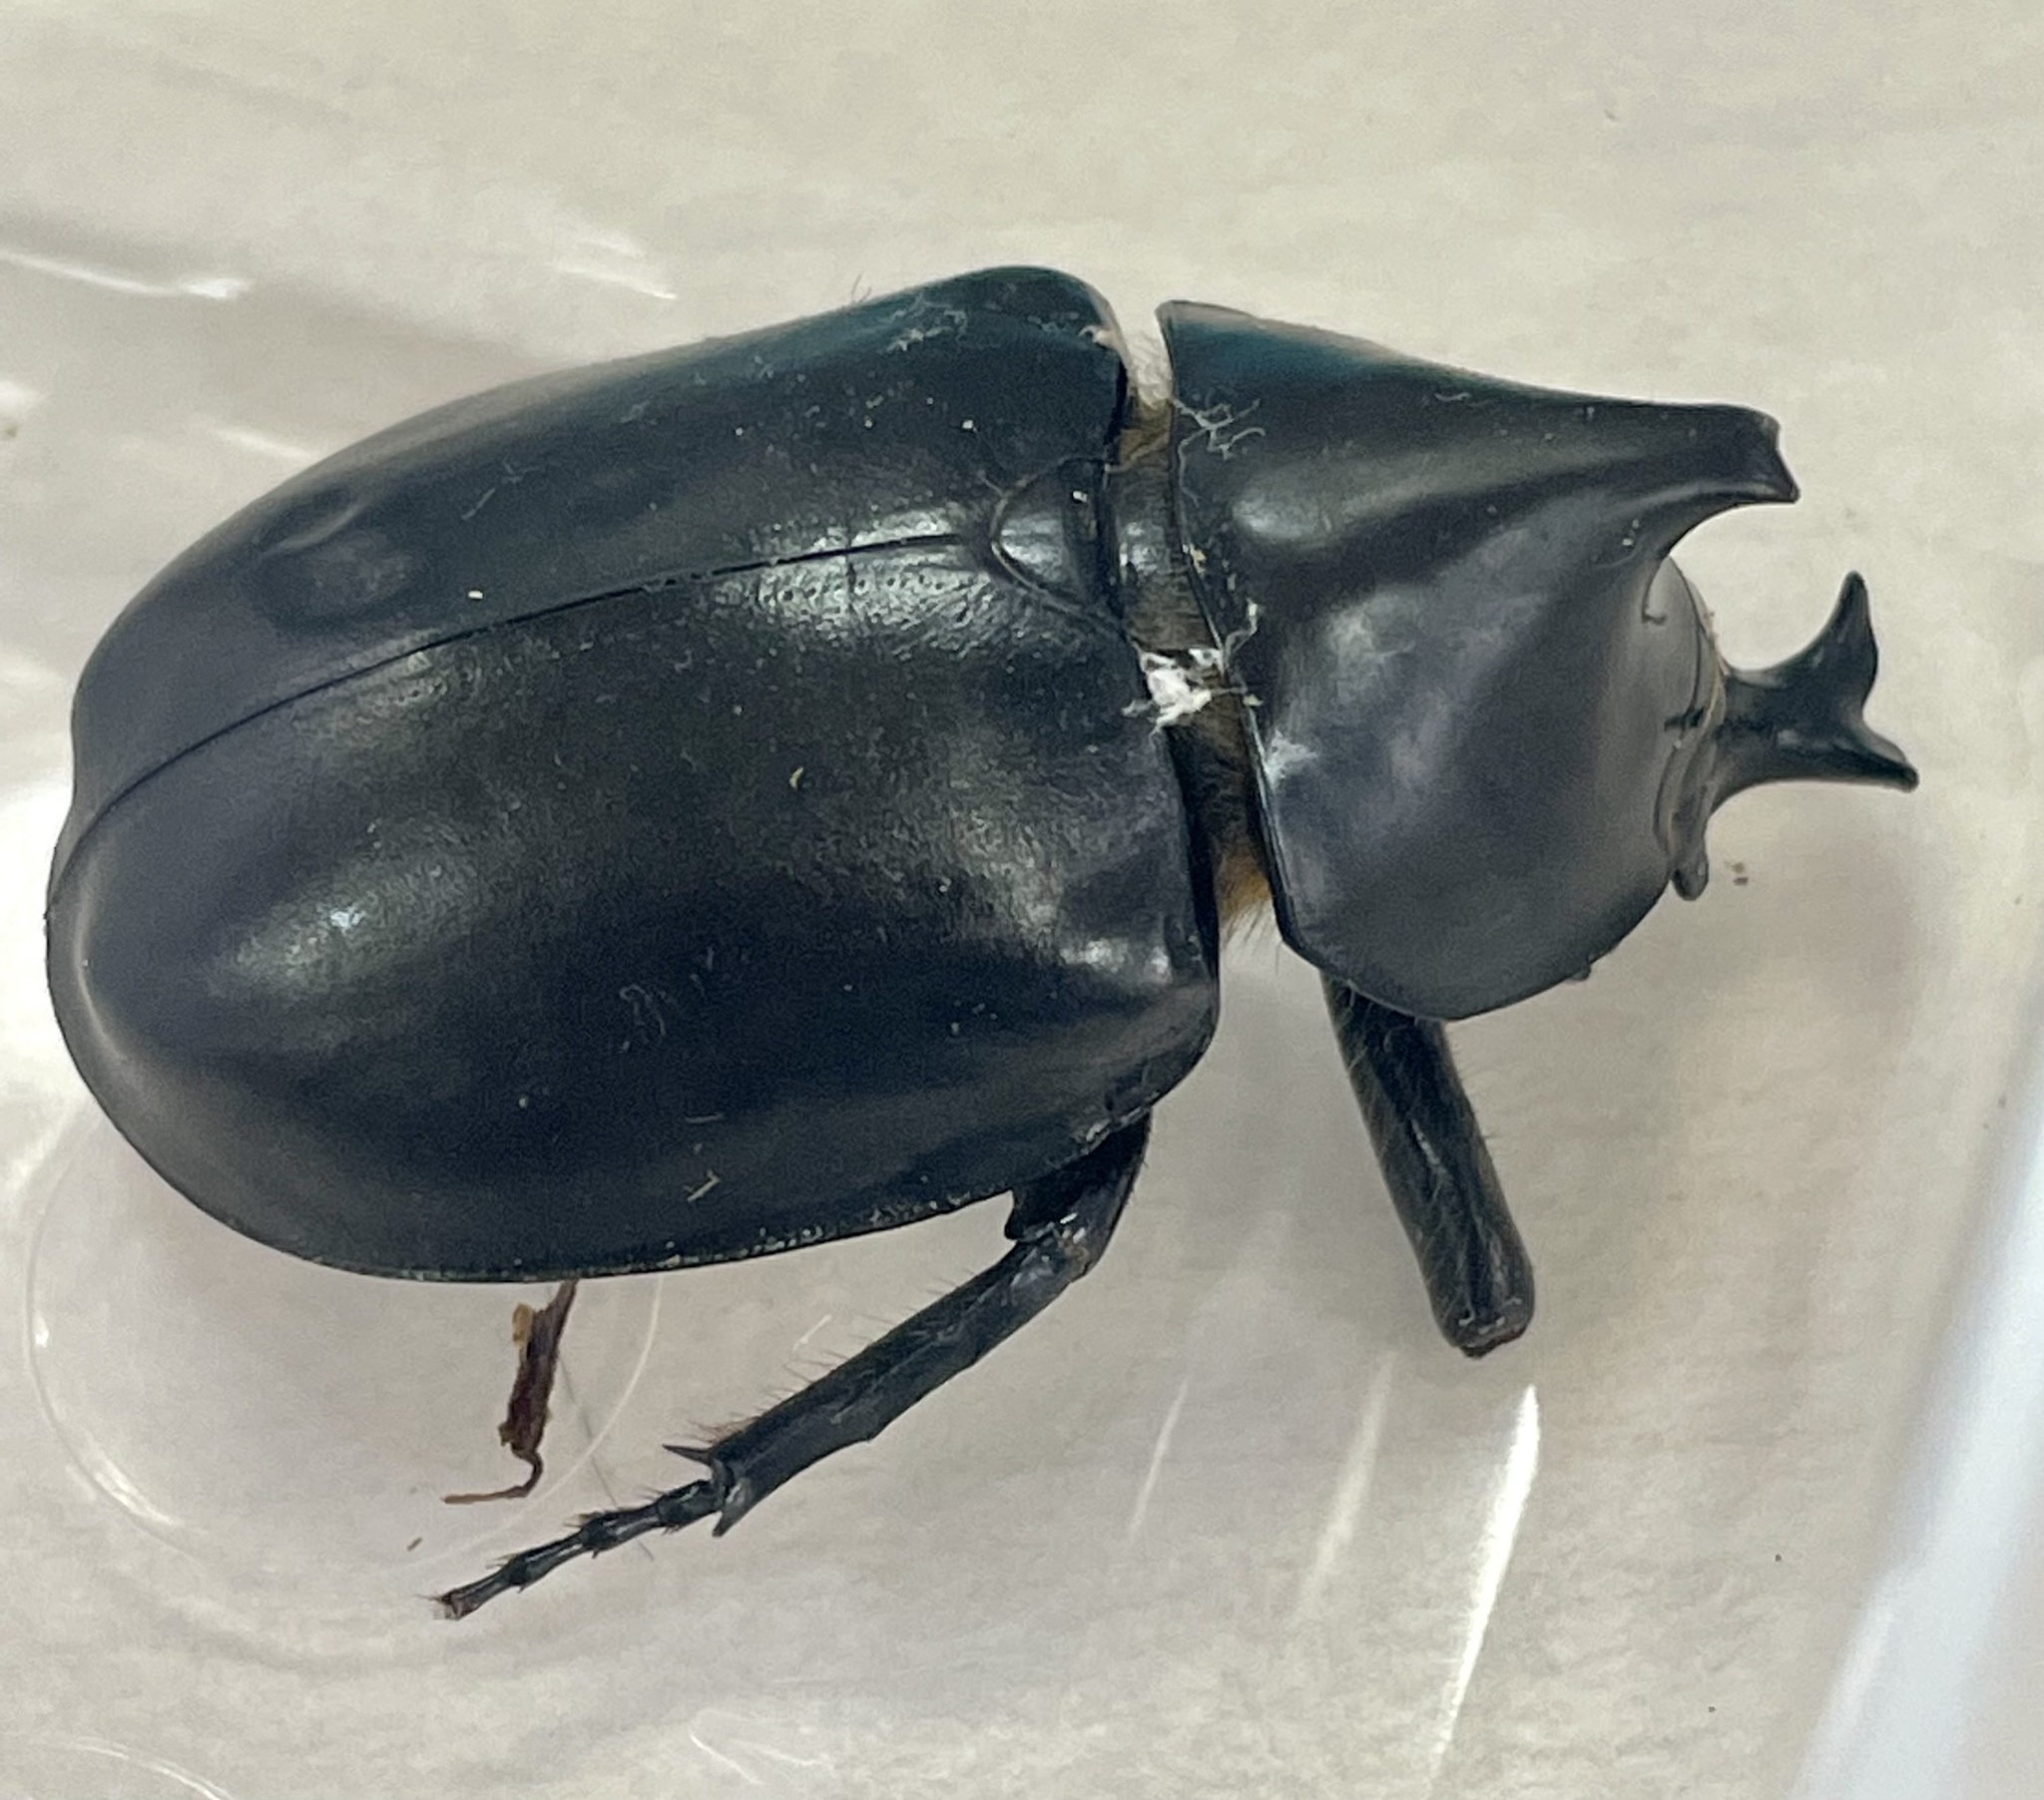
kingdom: Animalia
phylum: Arthropoda
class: Insecta
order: Coleoptera
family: Scarabaeidae
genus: Xylotrupes
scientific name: Xylotrupes australicus
